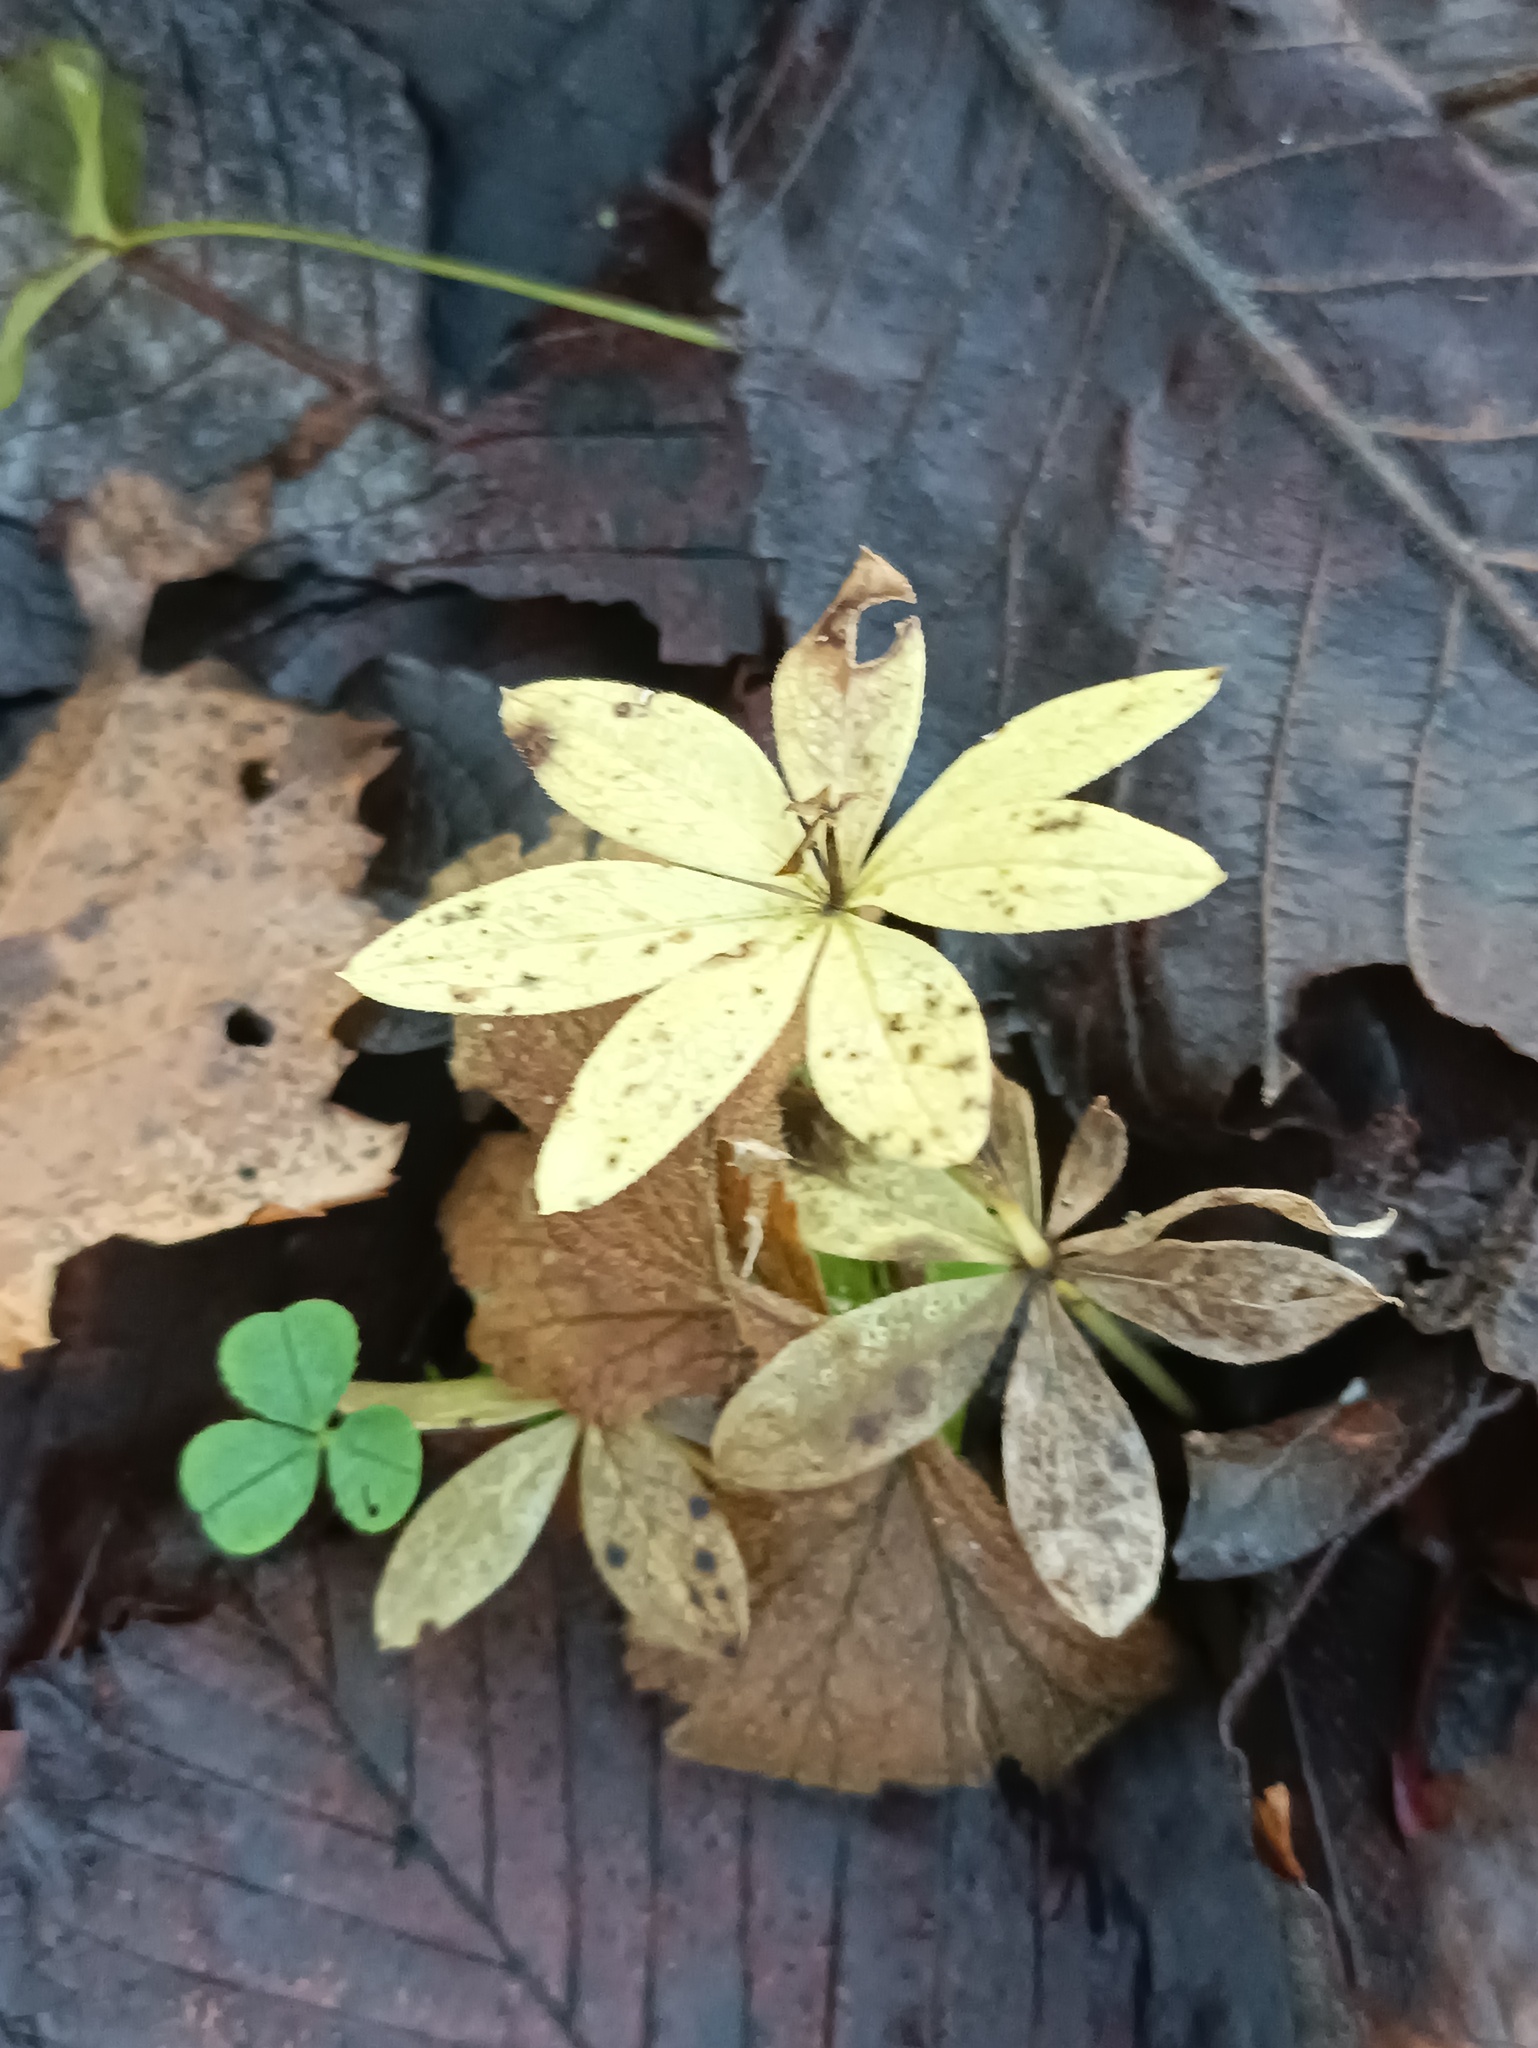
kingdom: Plantae
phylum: Tracheophyta
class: Magnoliopsida
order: Gentianales
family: Rubiaceae
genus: Galium
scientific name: Galium odoratum
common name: Sweet woodruff
